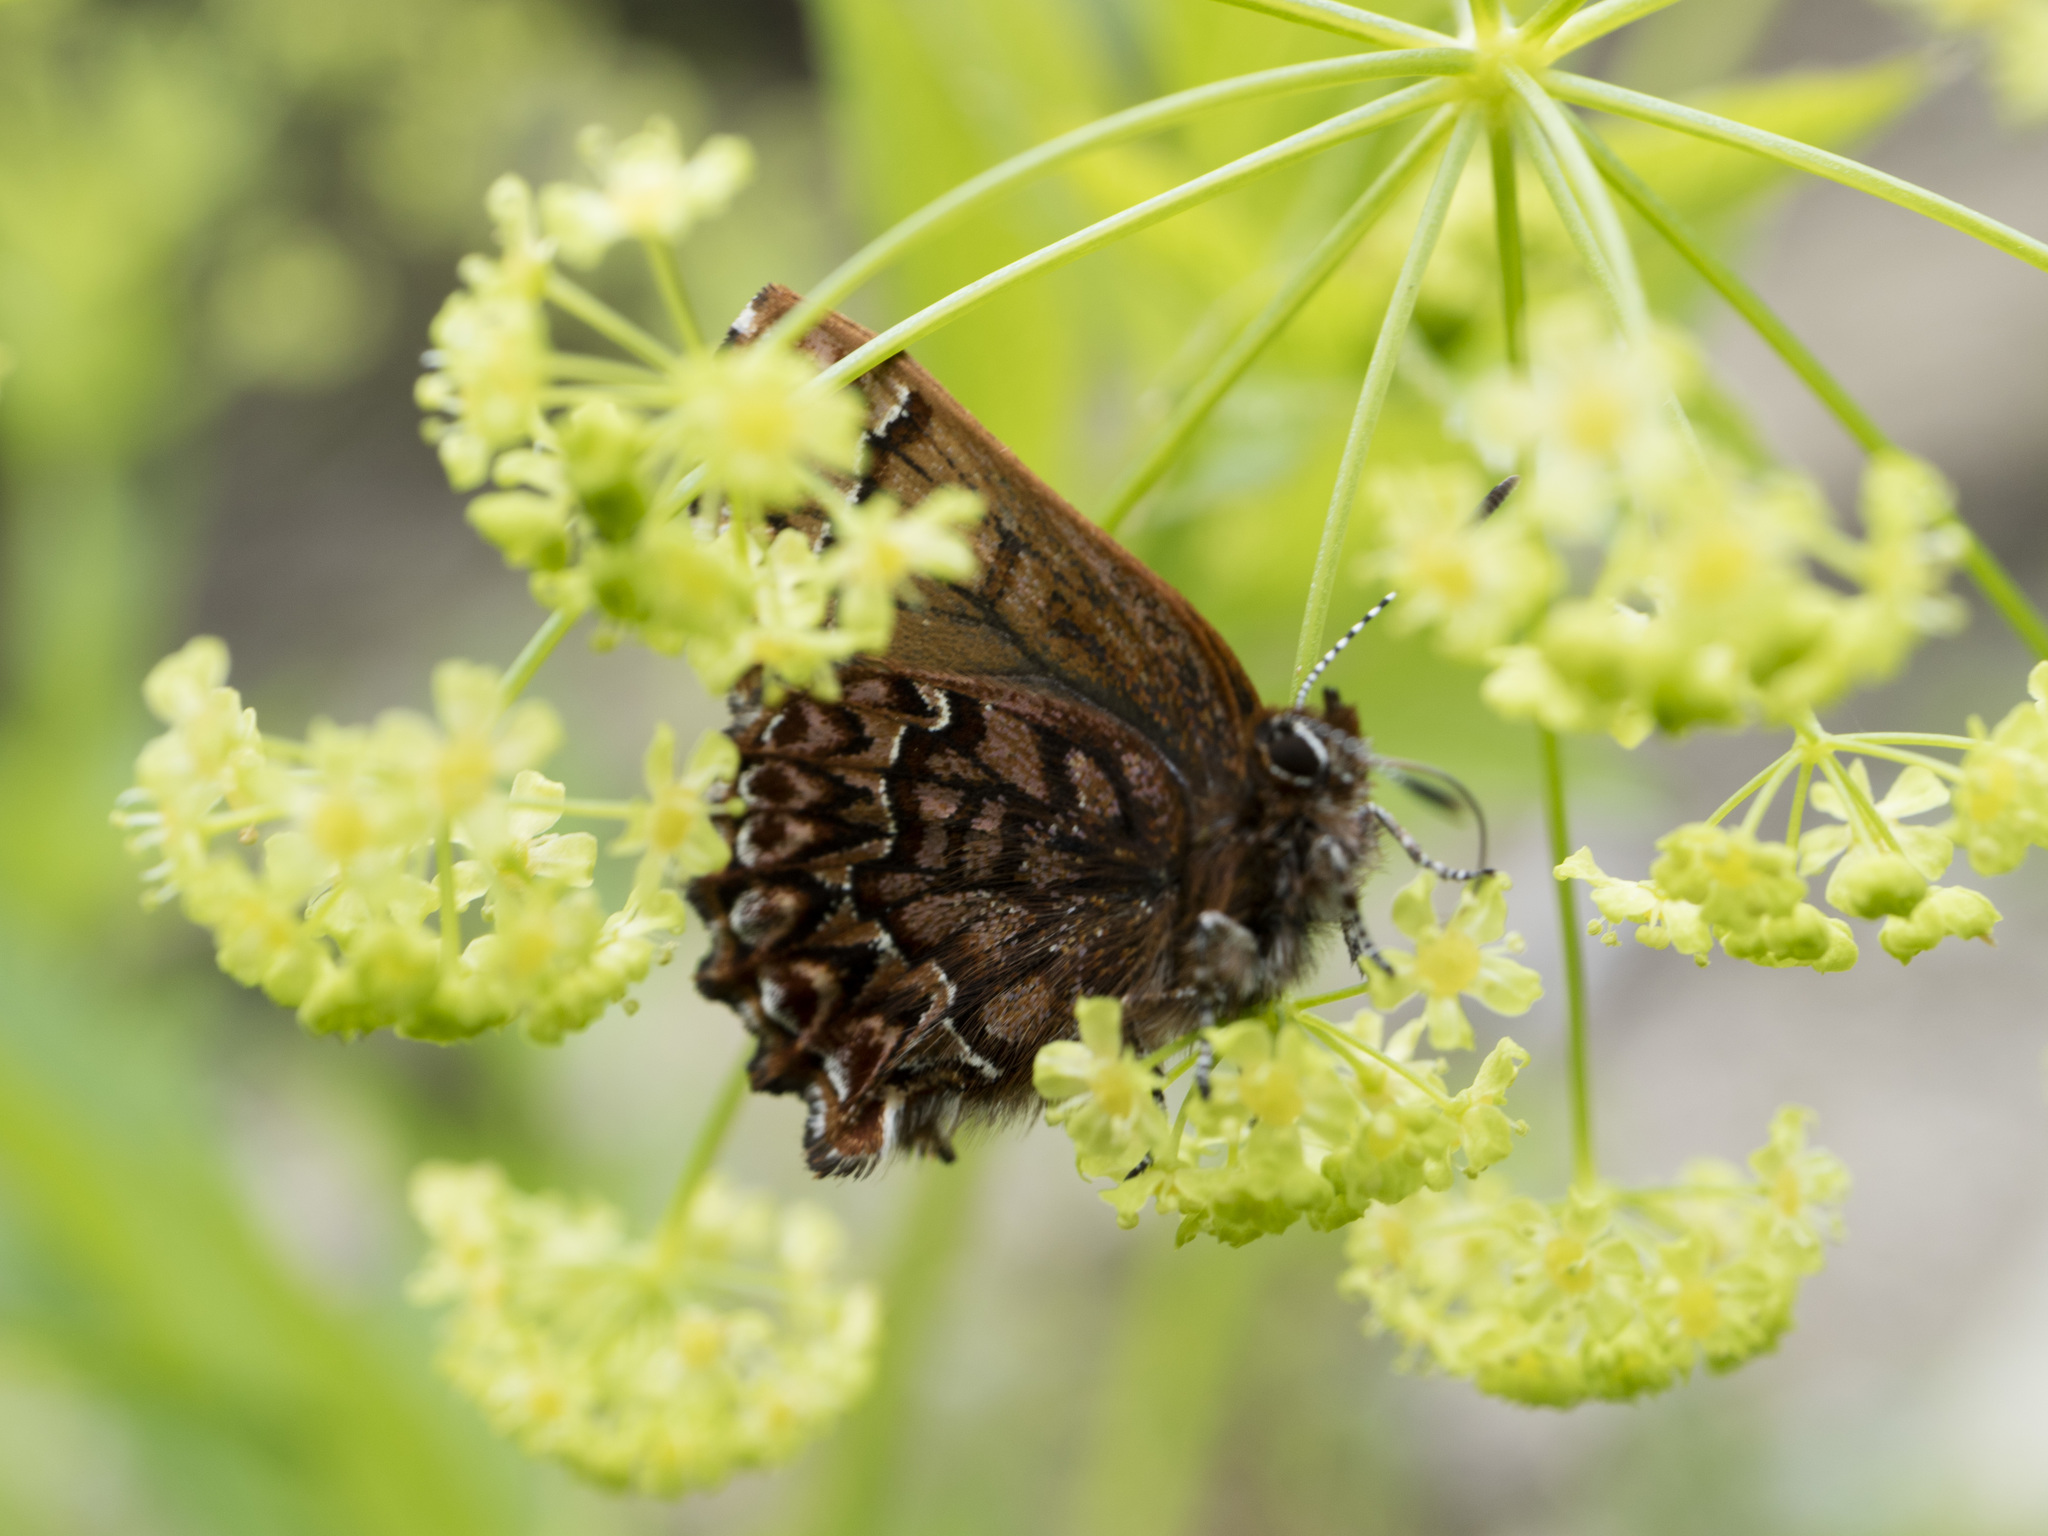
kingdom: Animalia
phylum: Arthropoda
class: Insecta
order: Lepidoptera
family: Lycaenidae
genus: Incisalia
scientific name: Incisalia eryphon
